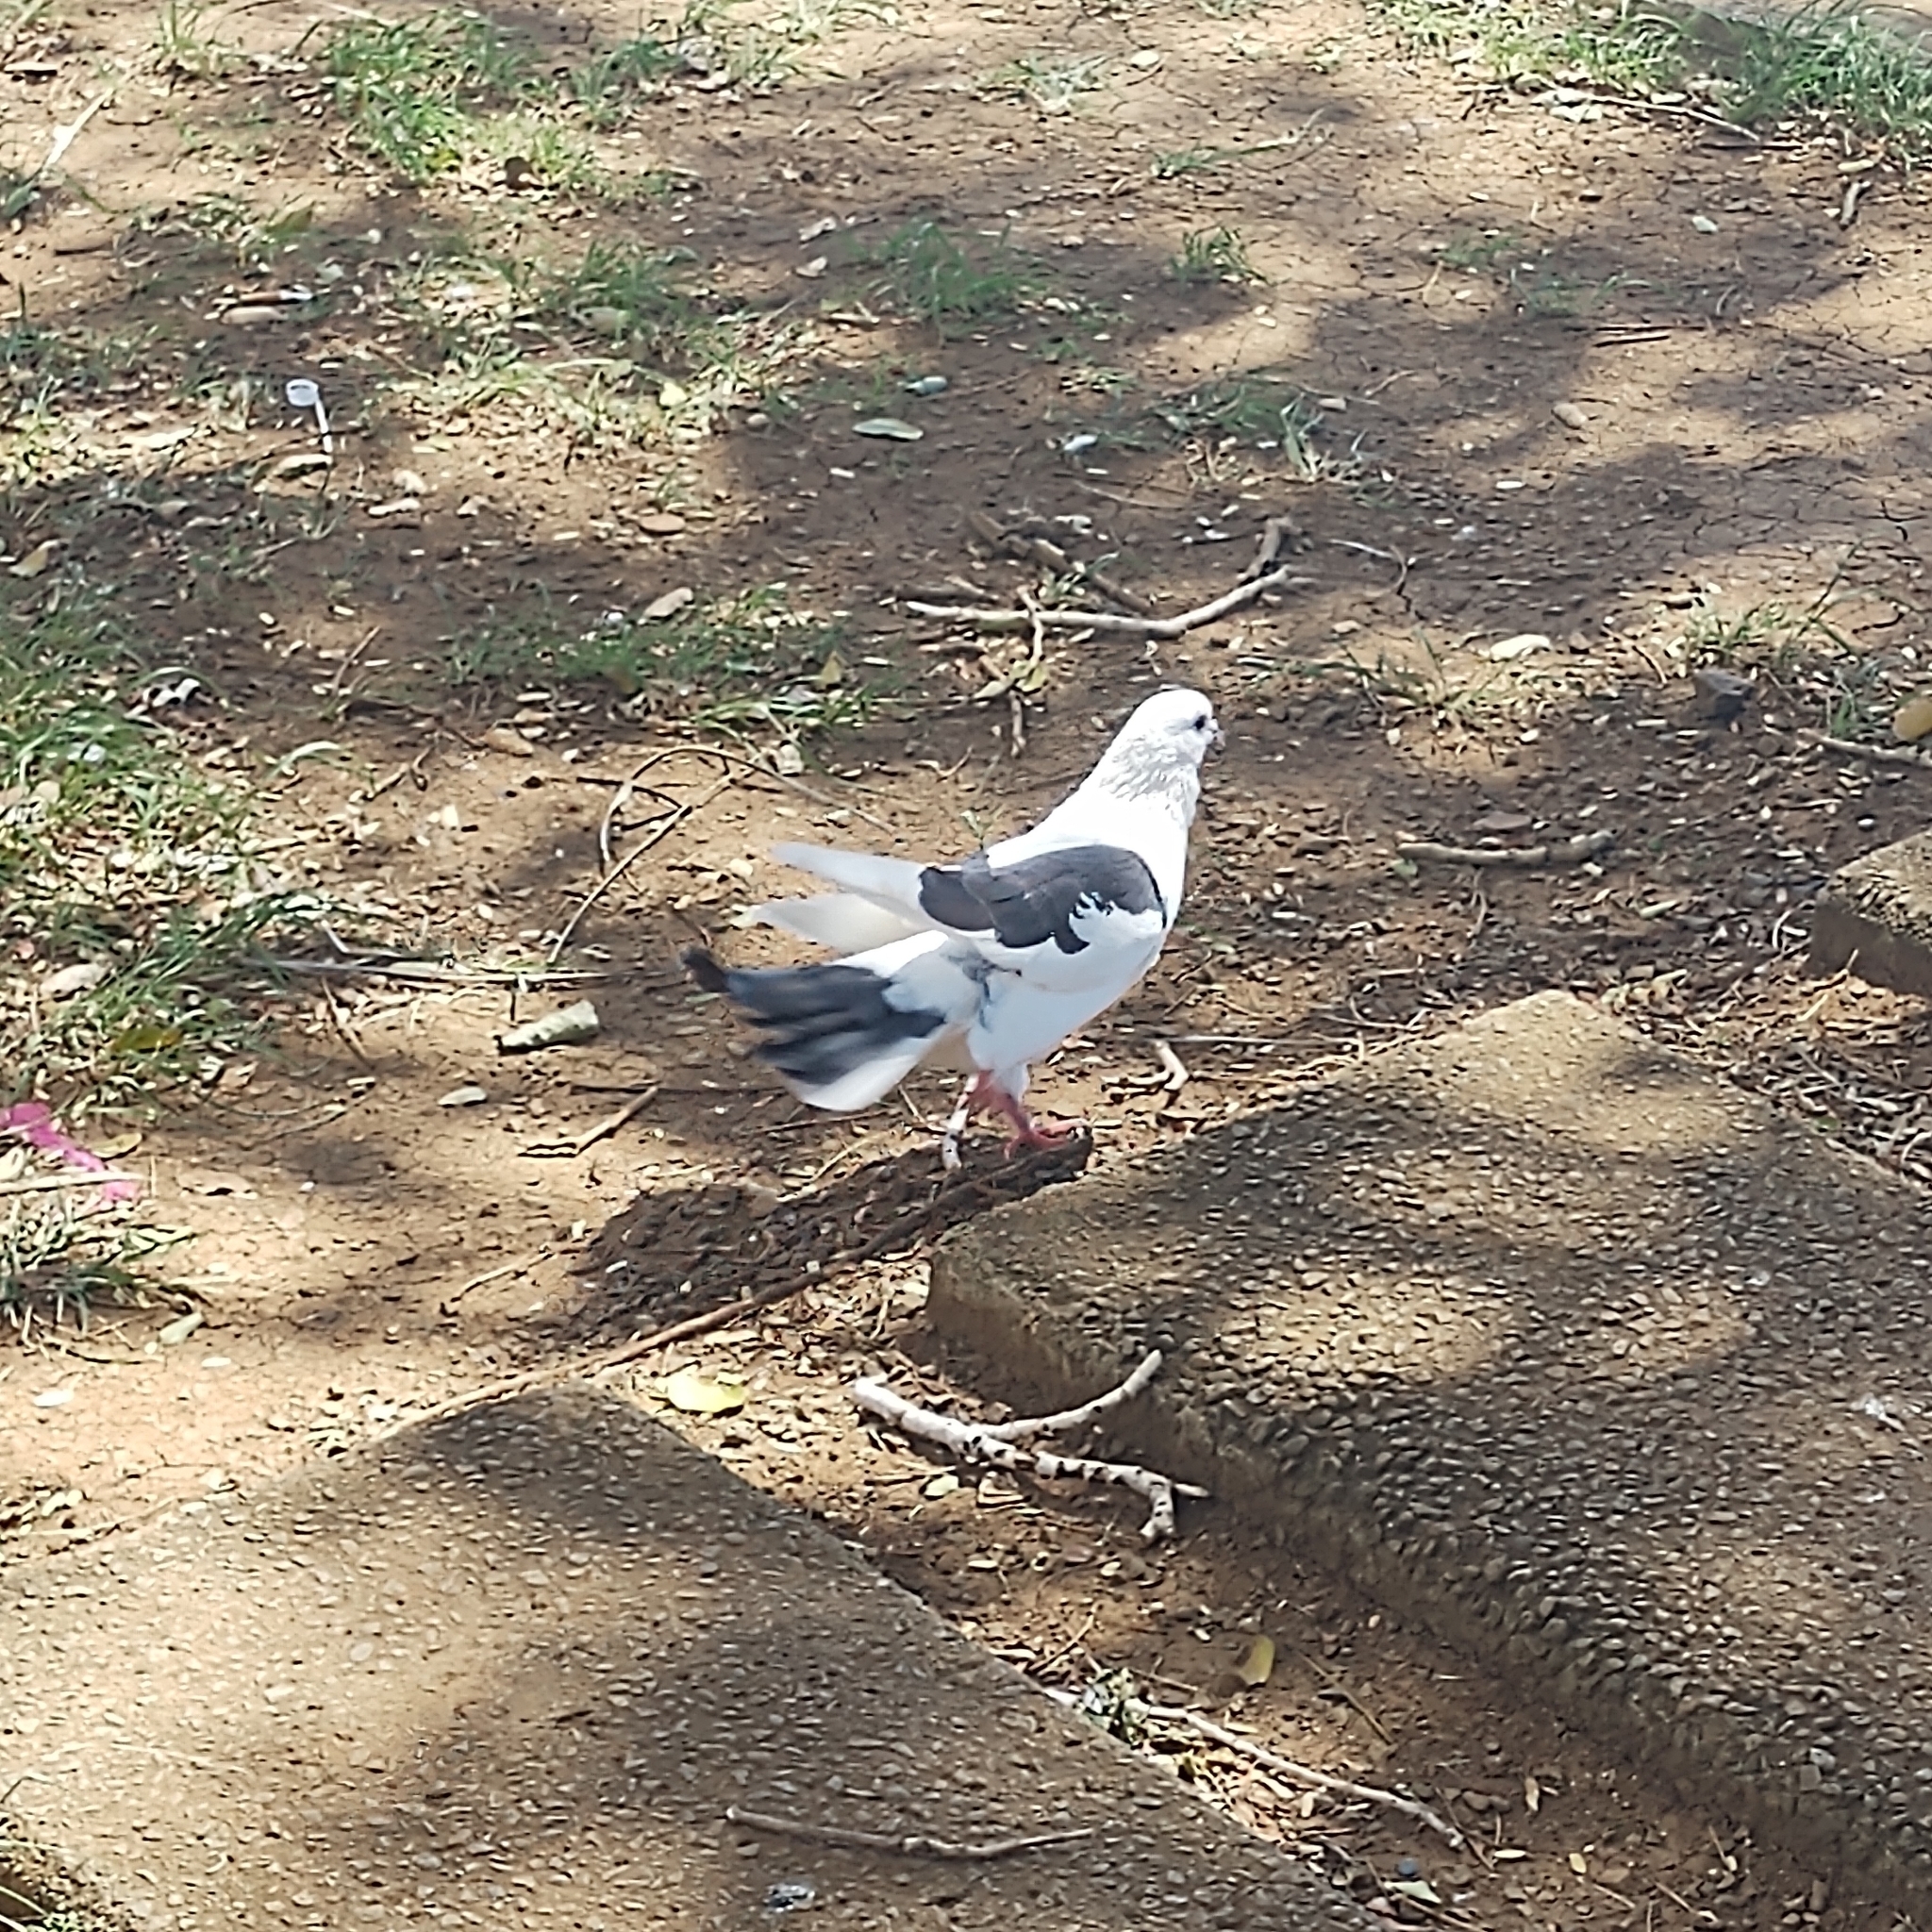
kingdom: Animalia
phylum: Chordata
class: Aves
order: Columbiformes
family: Columbidae
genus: Columba
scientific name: Columba livia
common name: Rock pigeon
